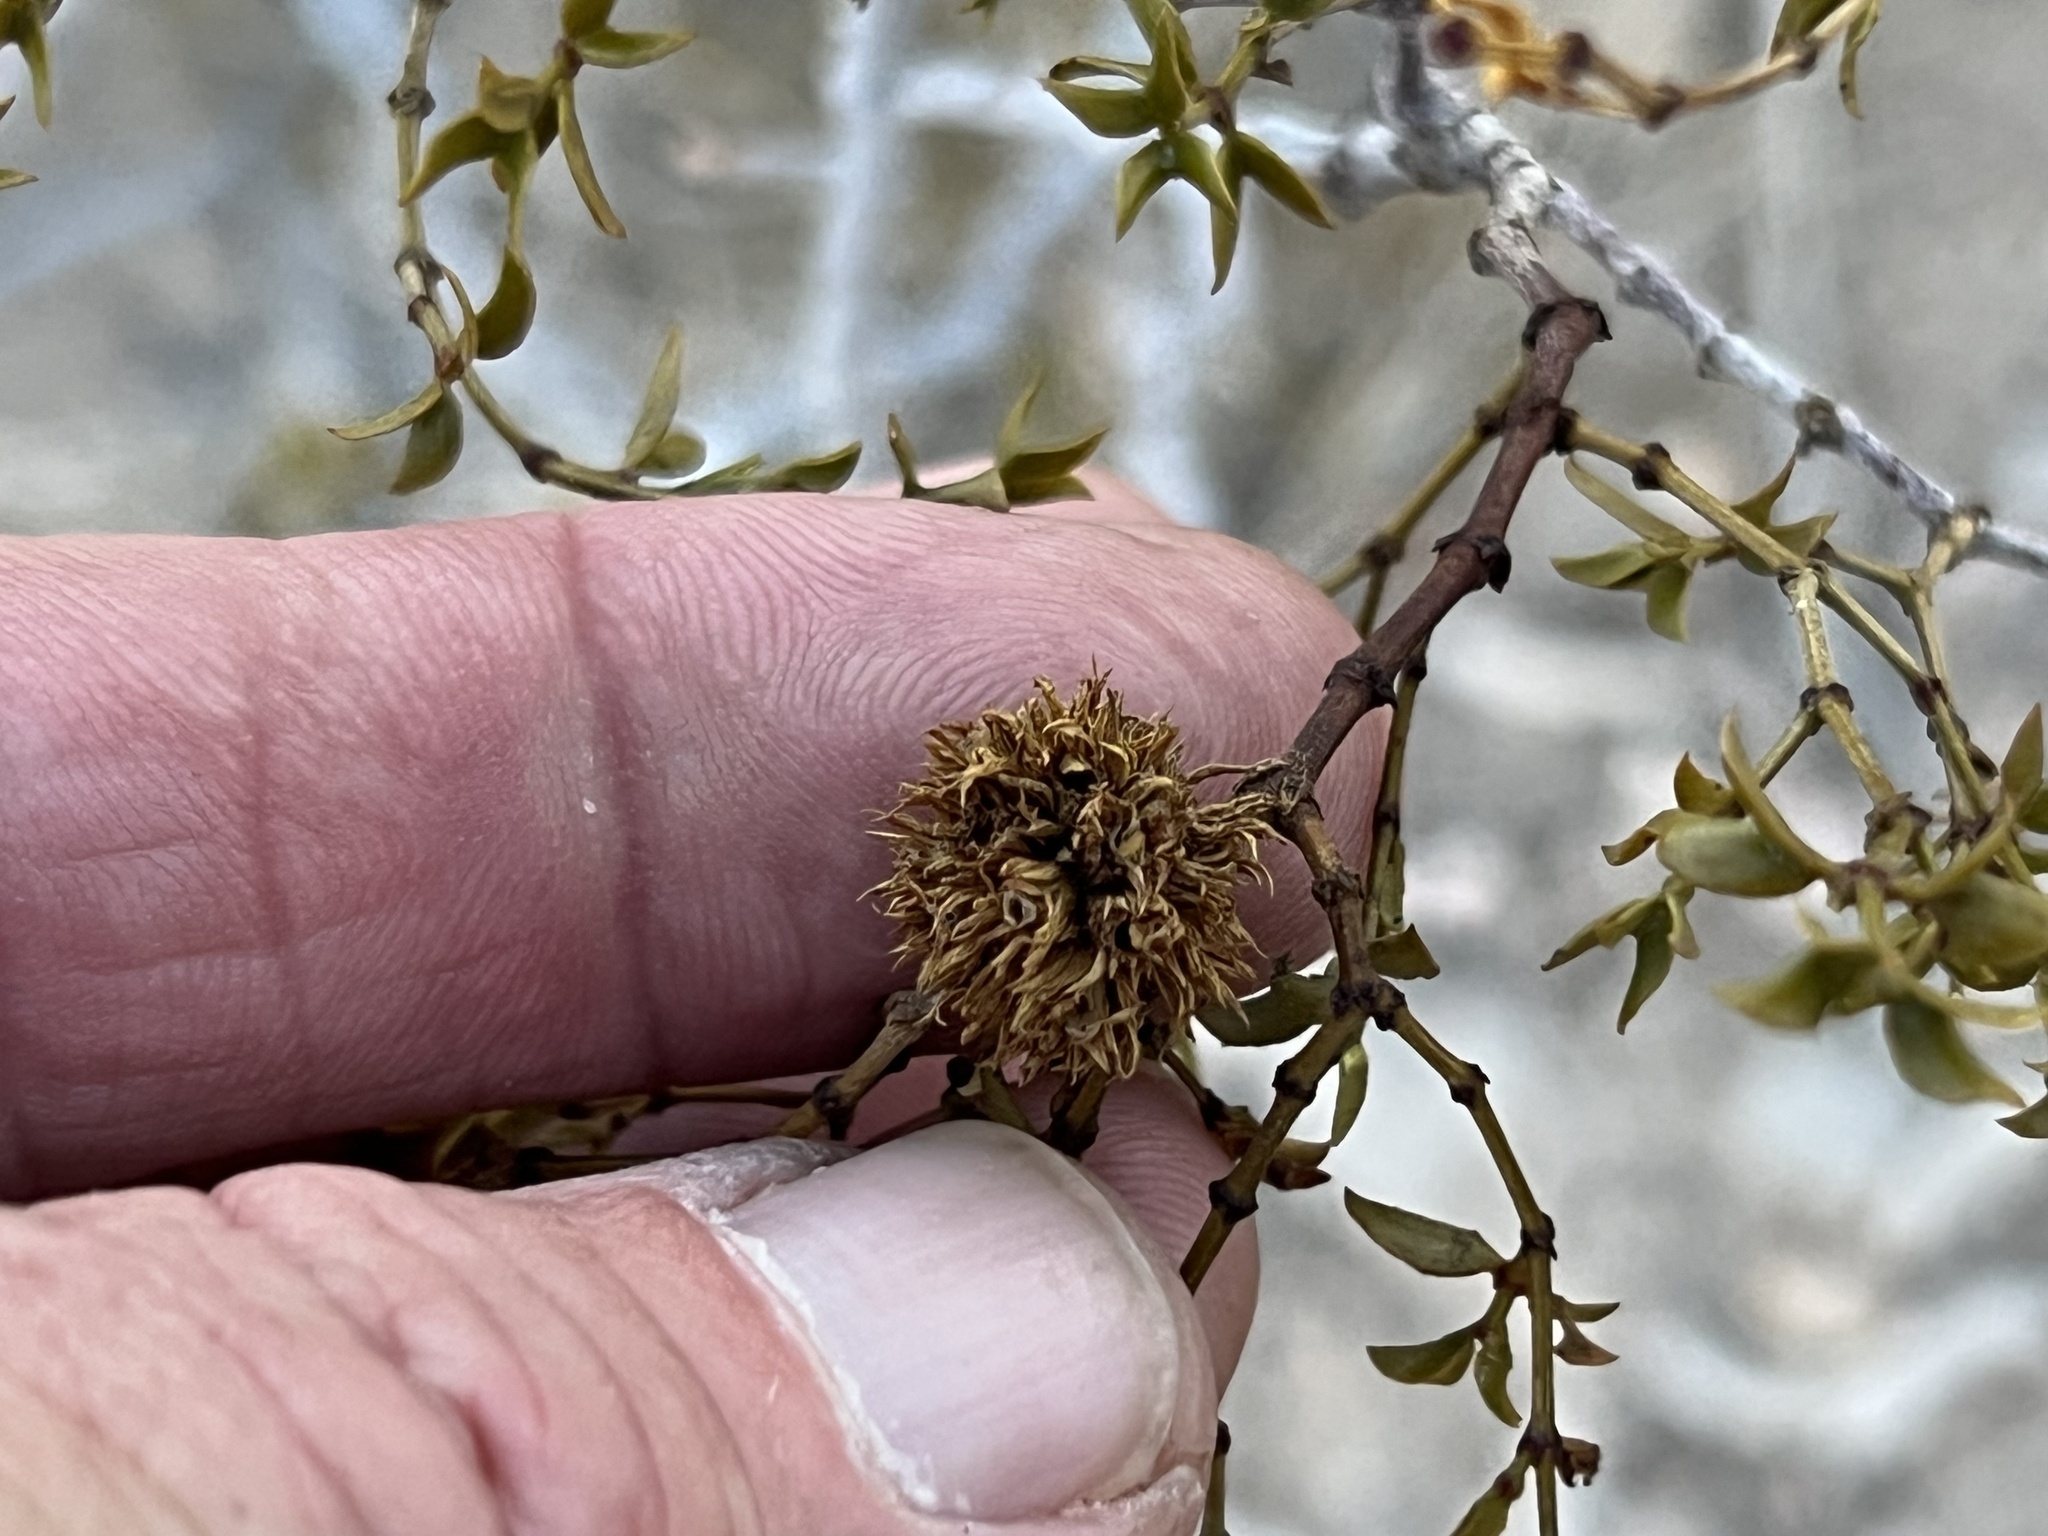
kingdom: Animalia
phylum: Arthropoda
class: Insecta
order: Diptera
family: Cecidomyiidae
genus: Asphondylia
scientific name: Asphondylia auripila
